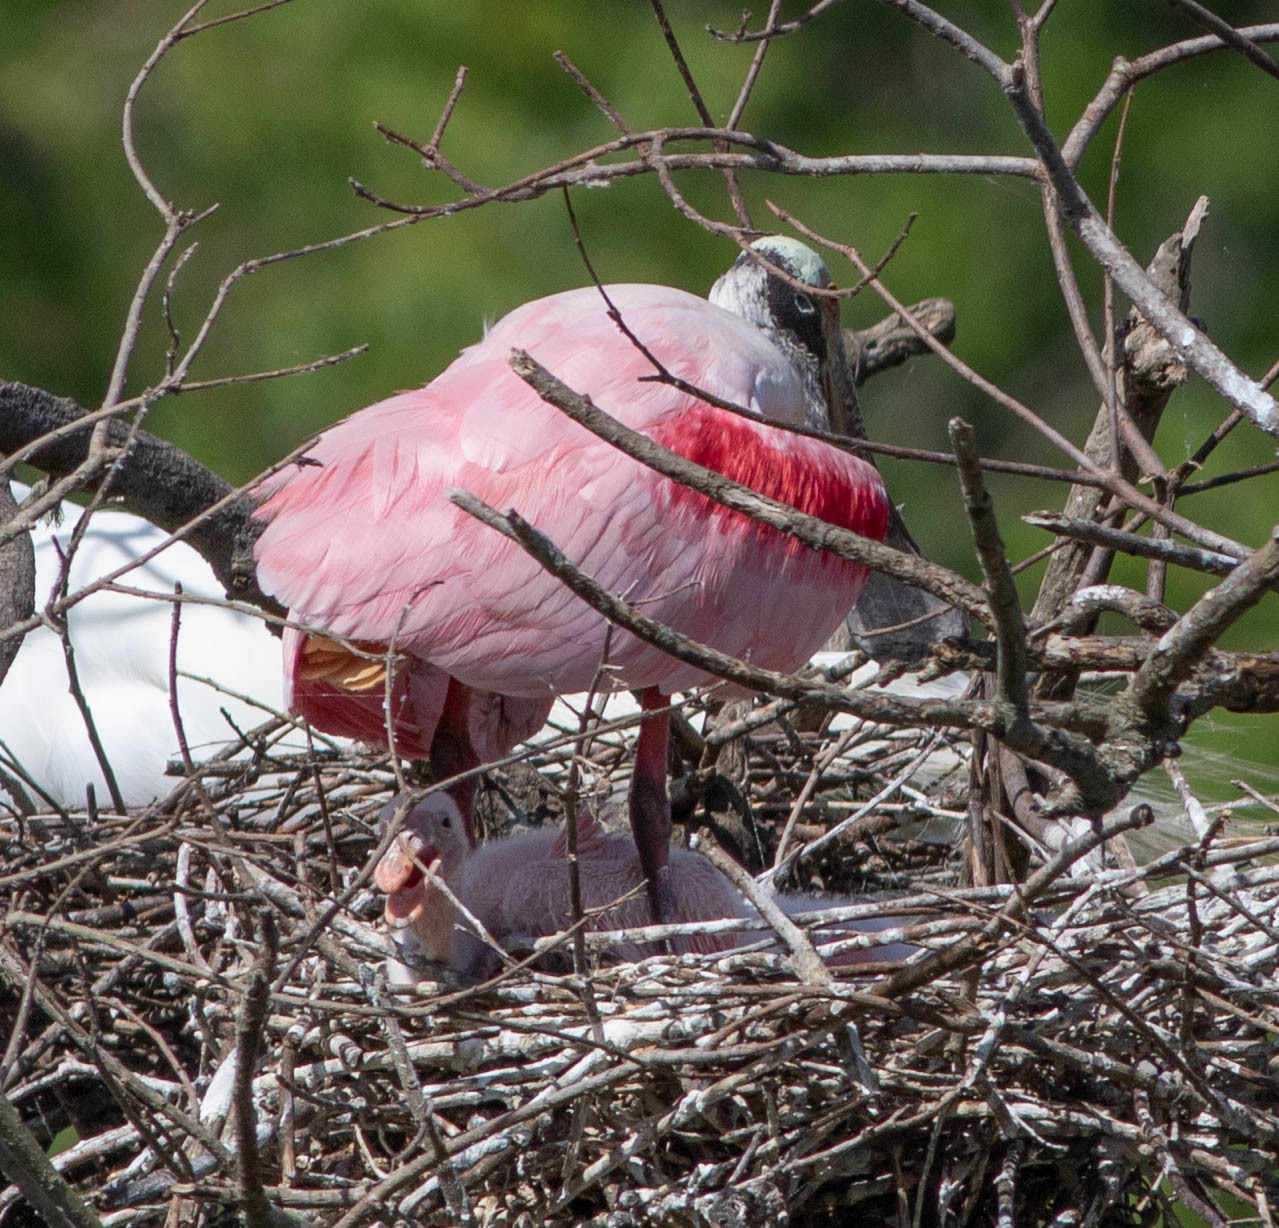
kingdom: Animalia
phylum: Chordata
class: Aves
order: Pelecaniformes
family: Threskiornithidae
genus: Platalea
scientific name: Platalea ajaja
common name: Roseate spoonbill
